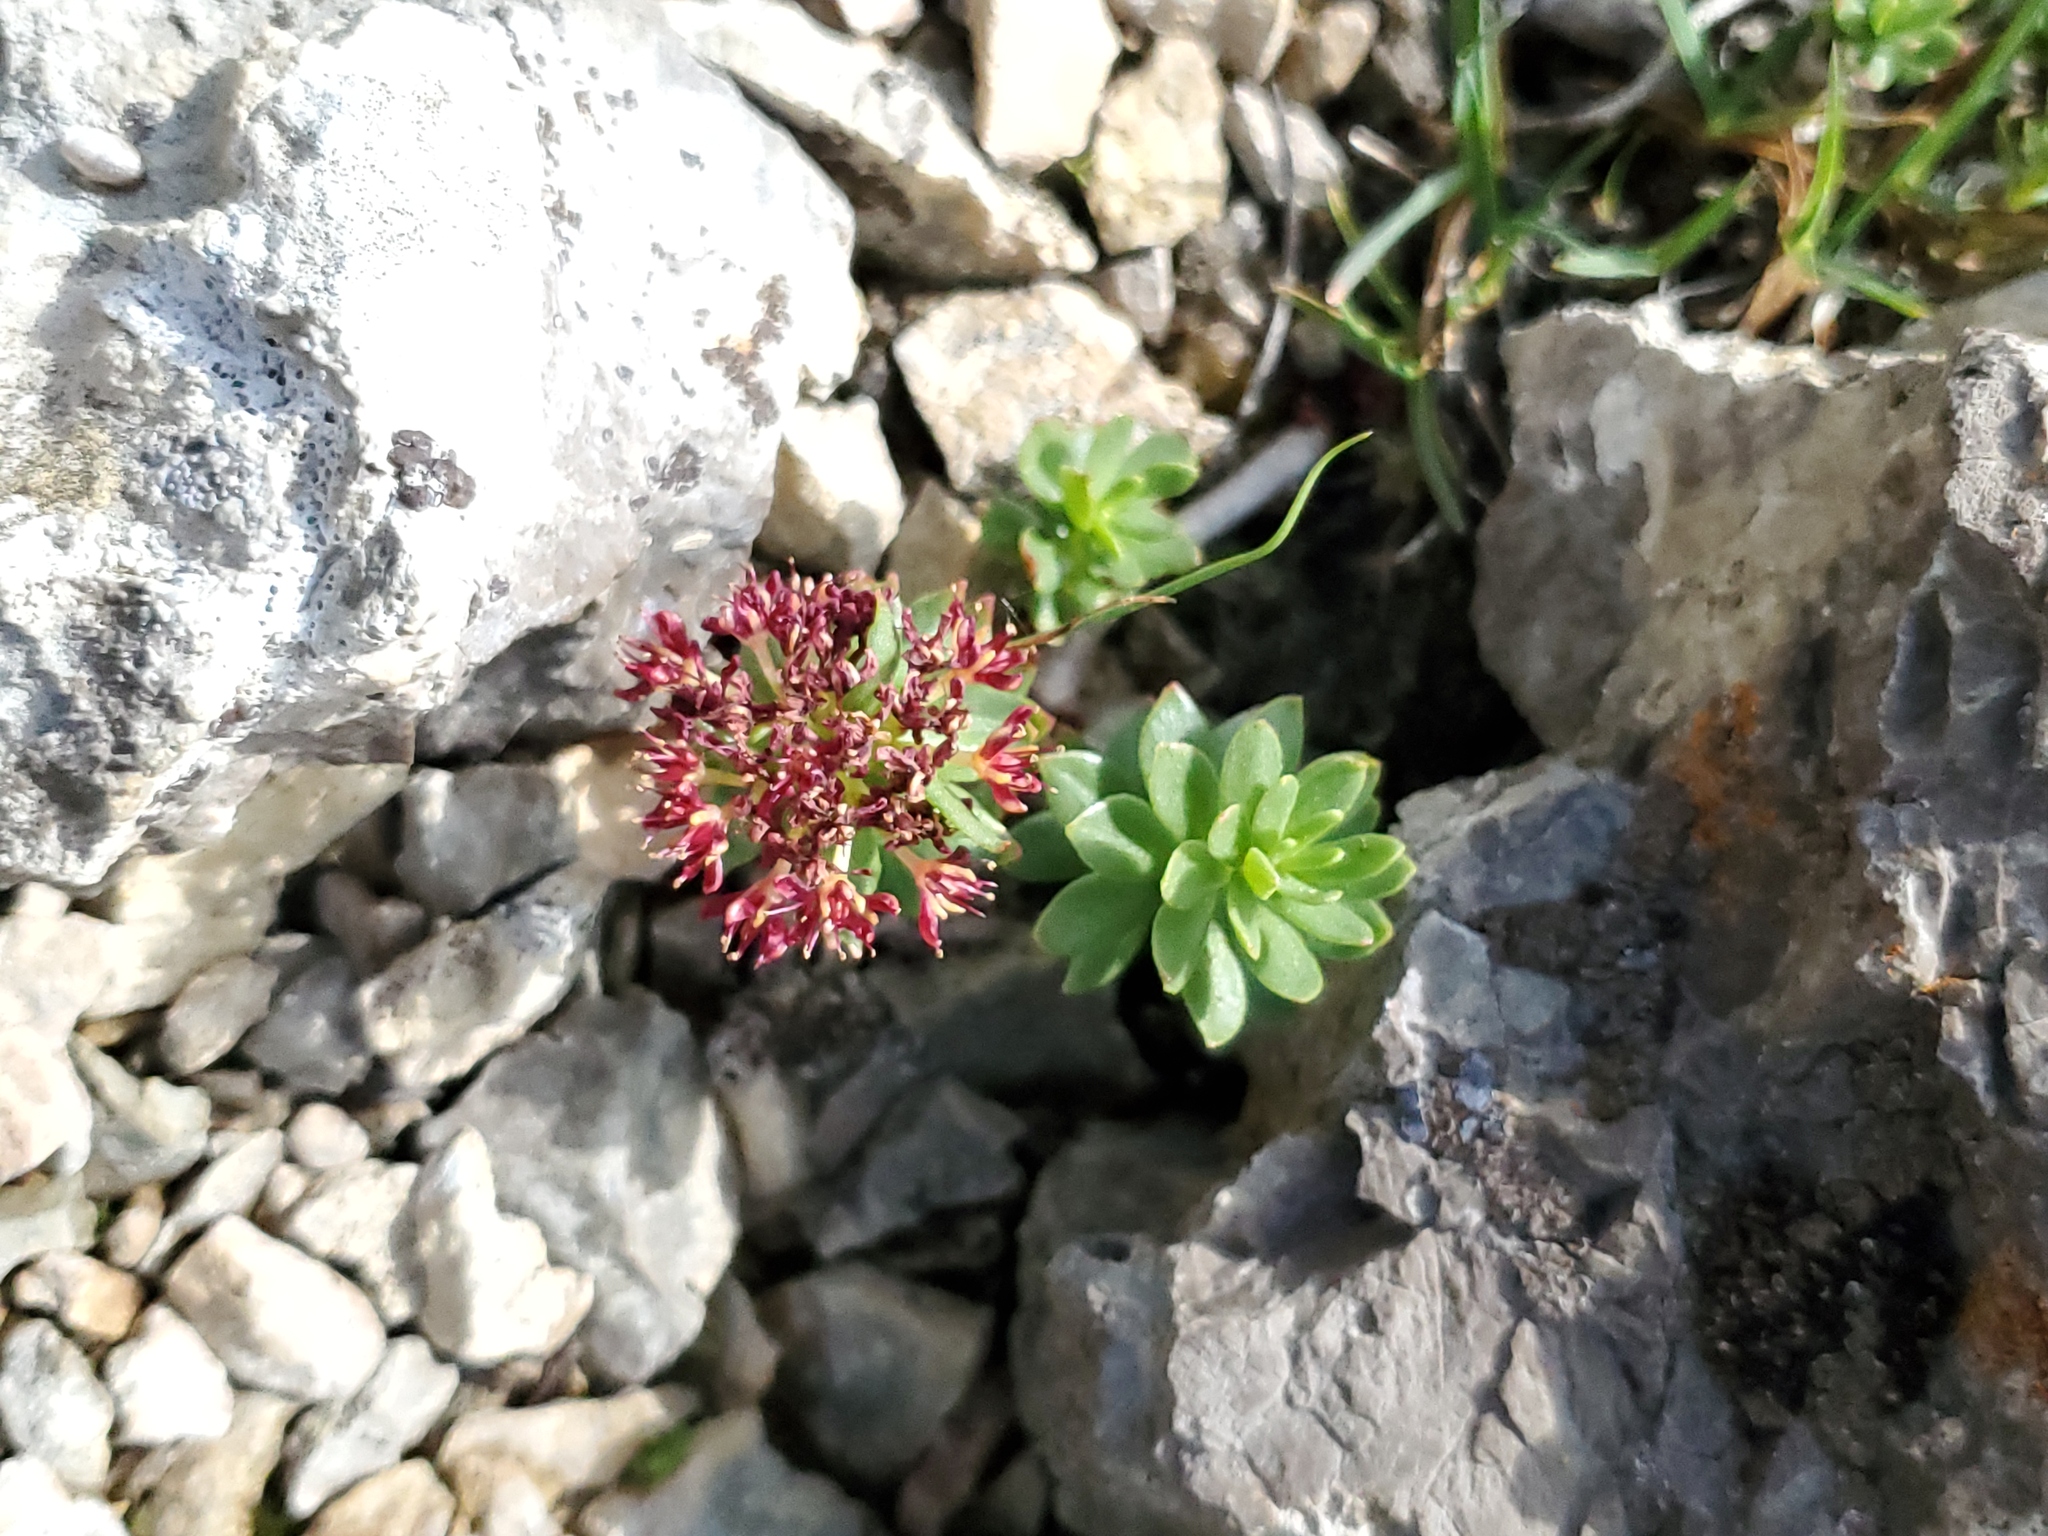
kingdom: Plantae
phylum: Tracheophyta
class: Magnoliopsida
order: Saxifragales
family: Crassulaceae
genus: Rhodiola
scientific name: Rhodiola integrifolia
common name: Western roseroot
